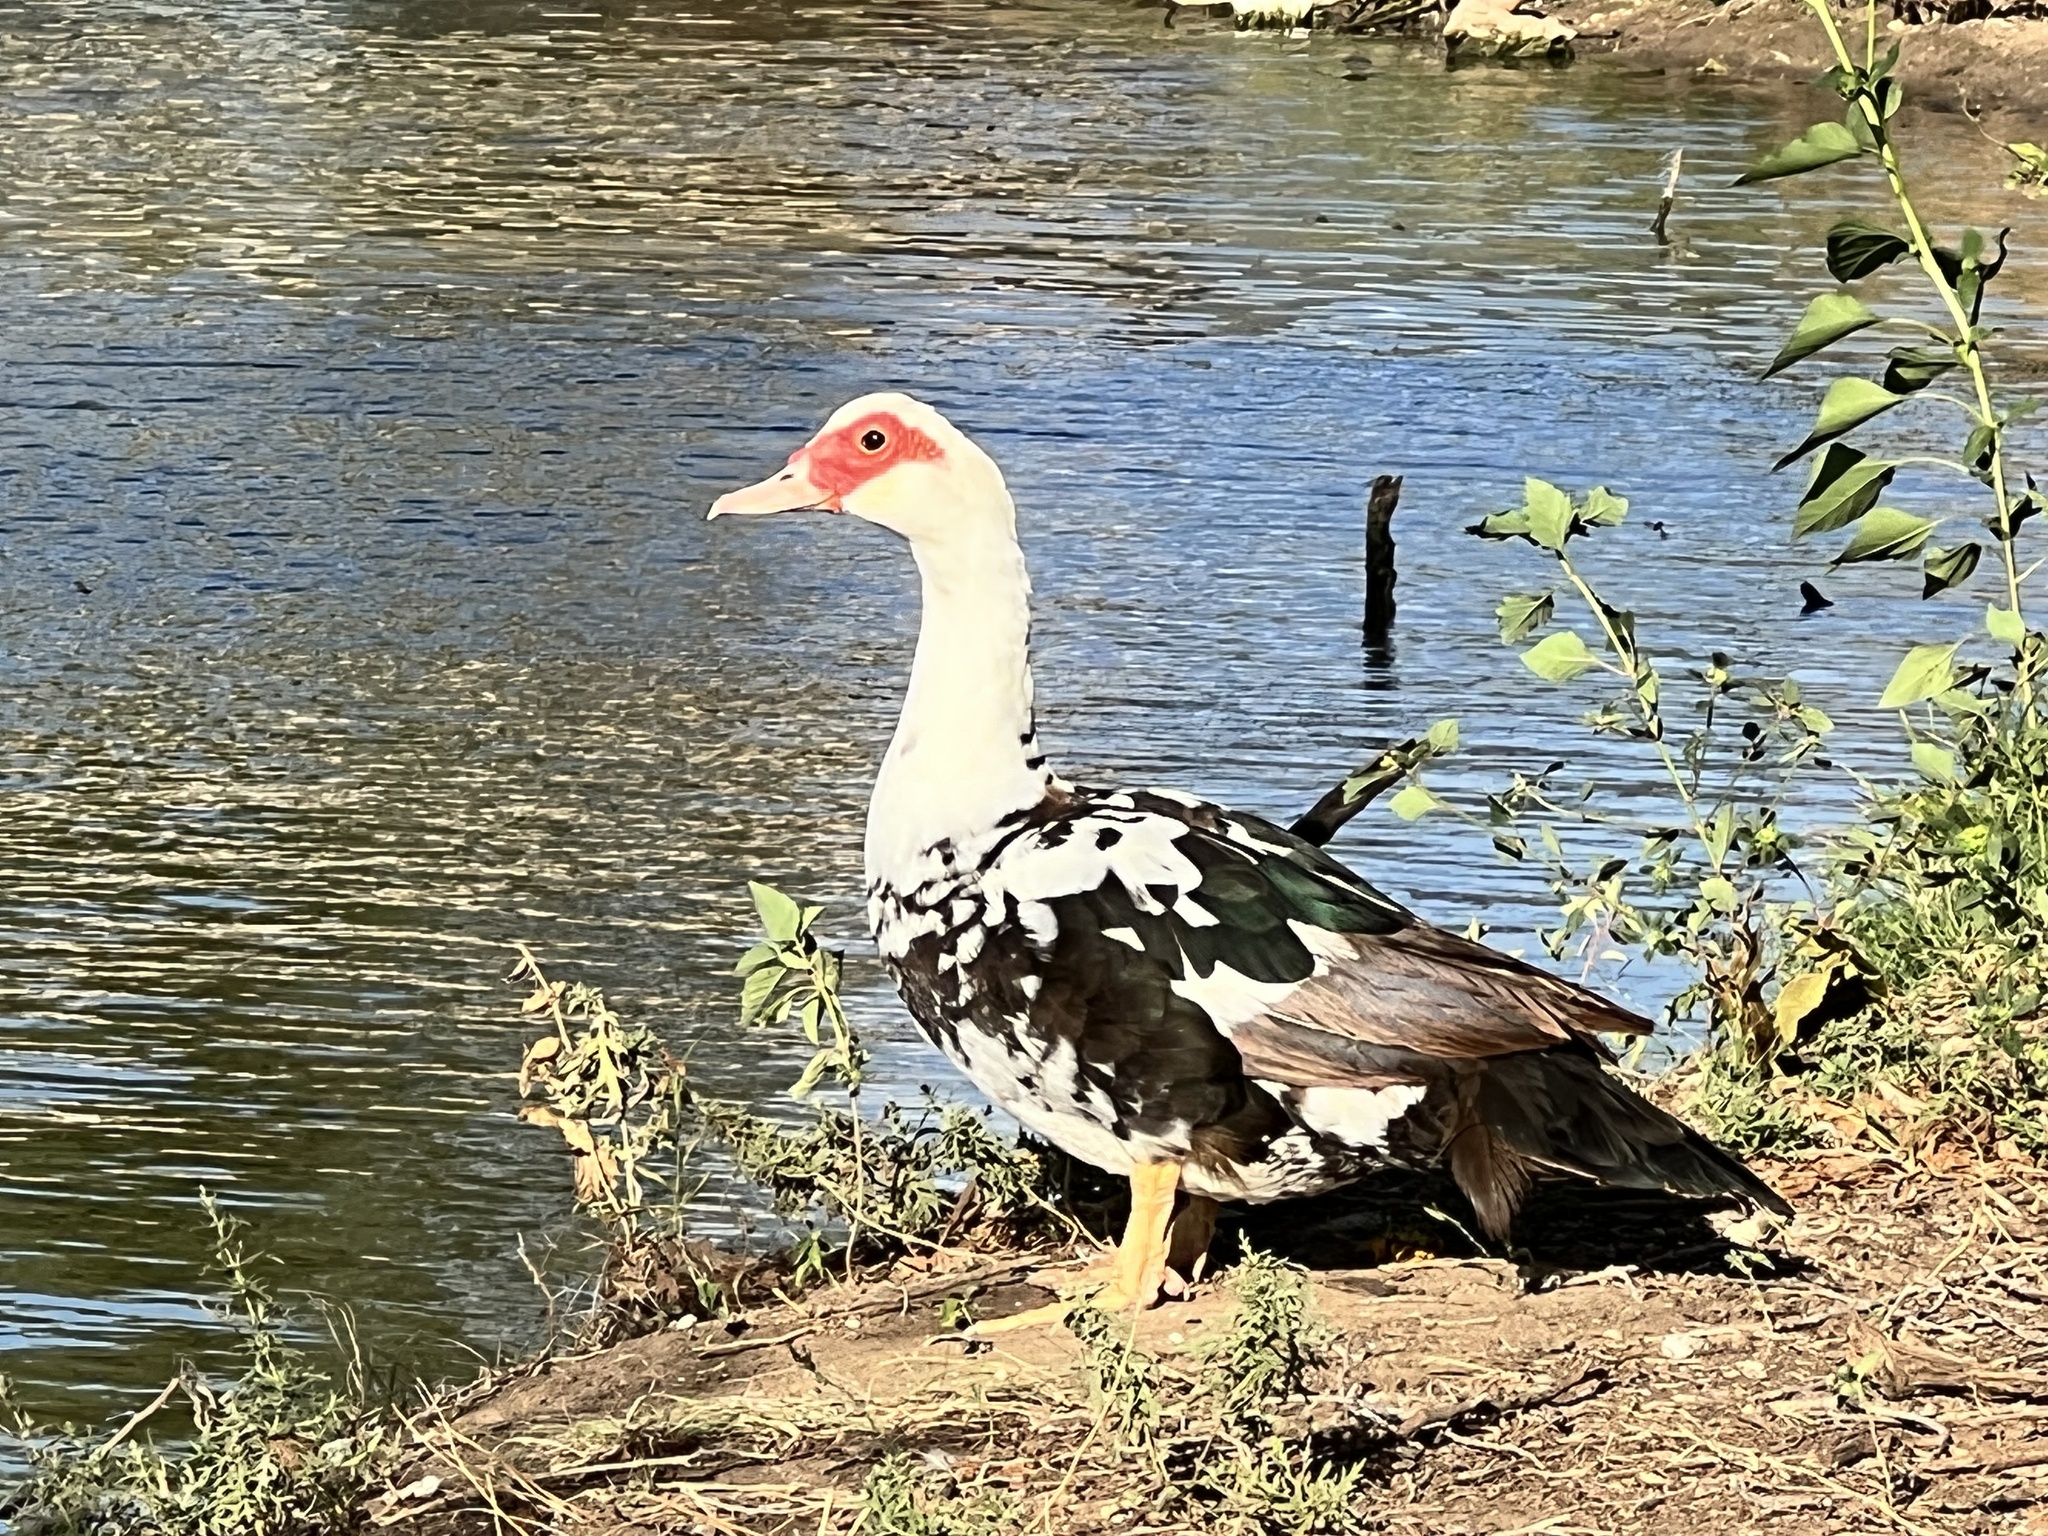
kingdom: Animalia
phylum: Chordata
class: Aves
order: Anseriformes
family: Anatidae
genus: Cairina
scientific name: Cairina moschata
